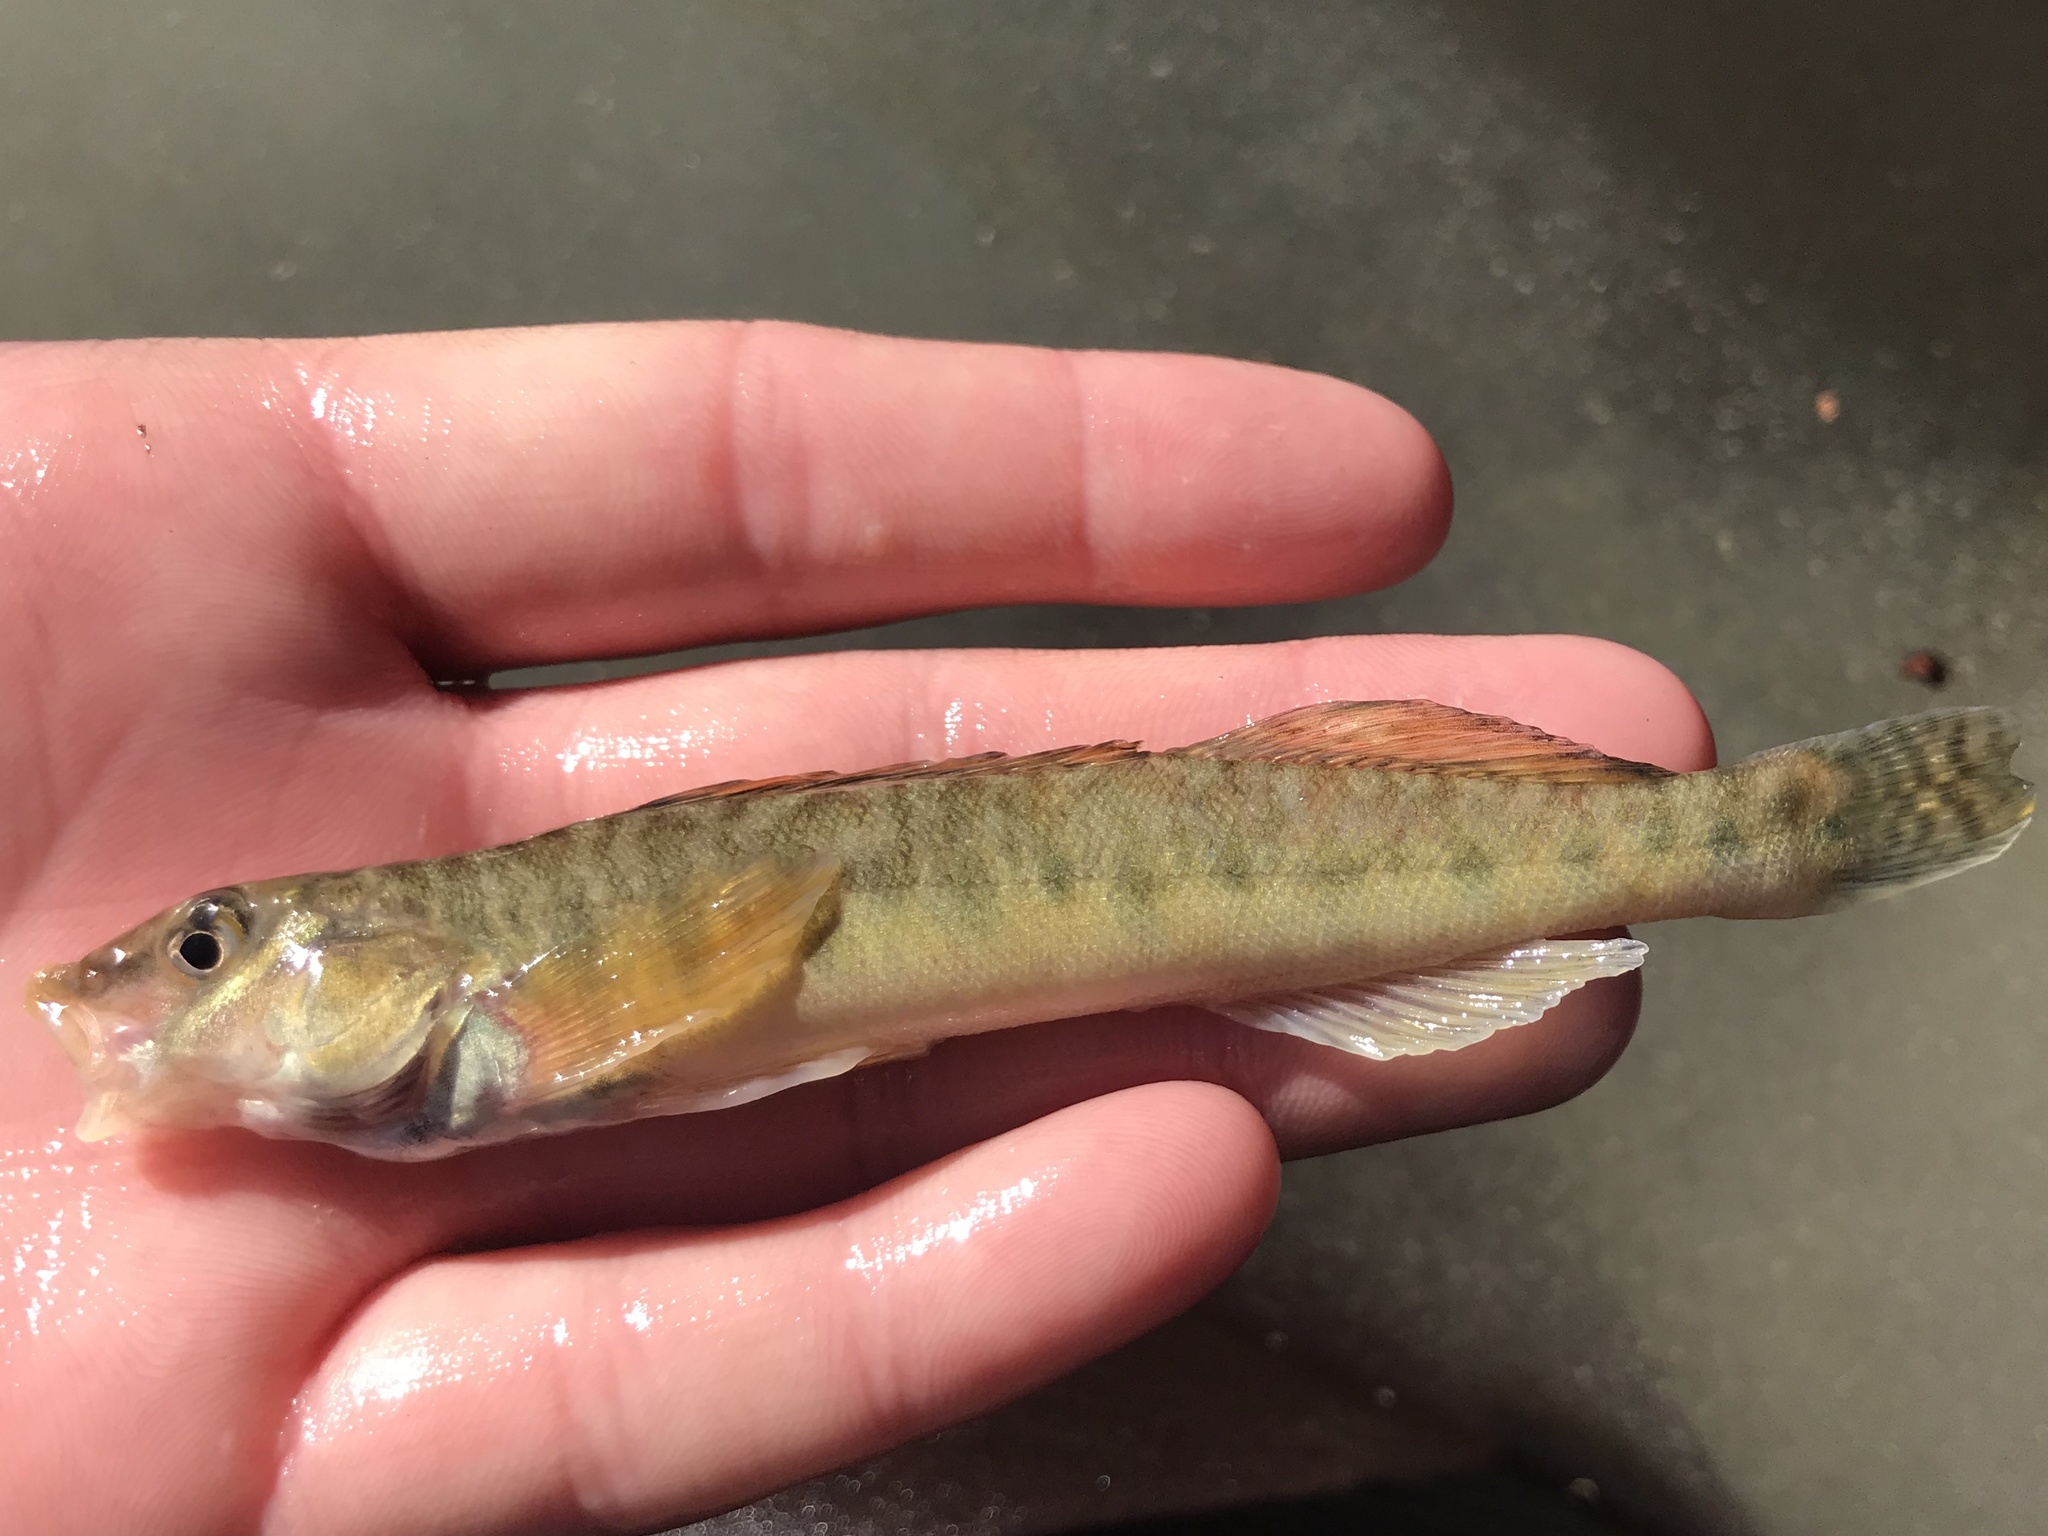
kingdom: Animalia
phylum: Chordata
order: Perciformes
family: Percidae
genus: Percina
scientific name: Percina carbonaria
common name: Texas logperch
